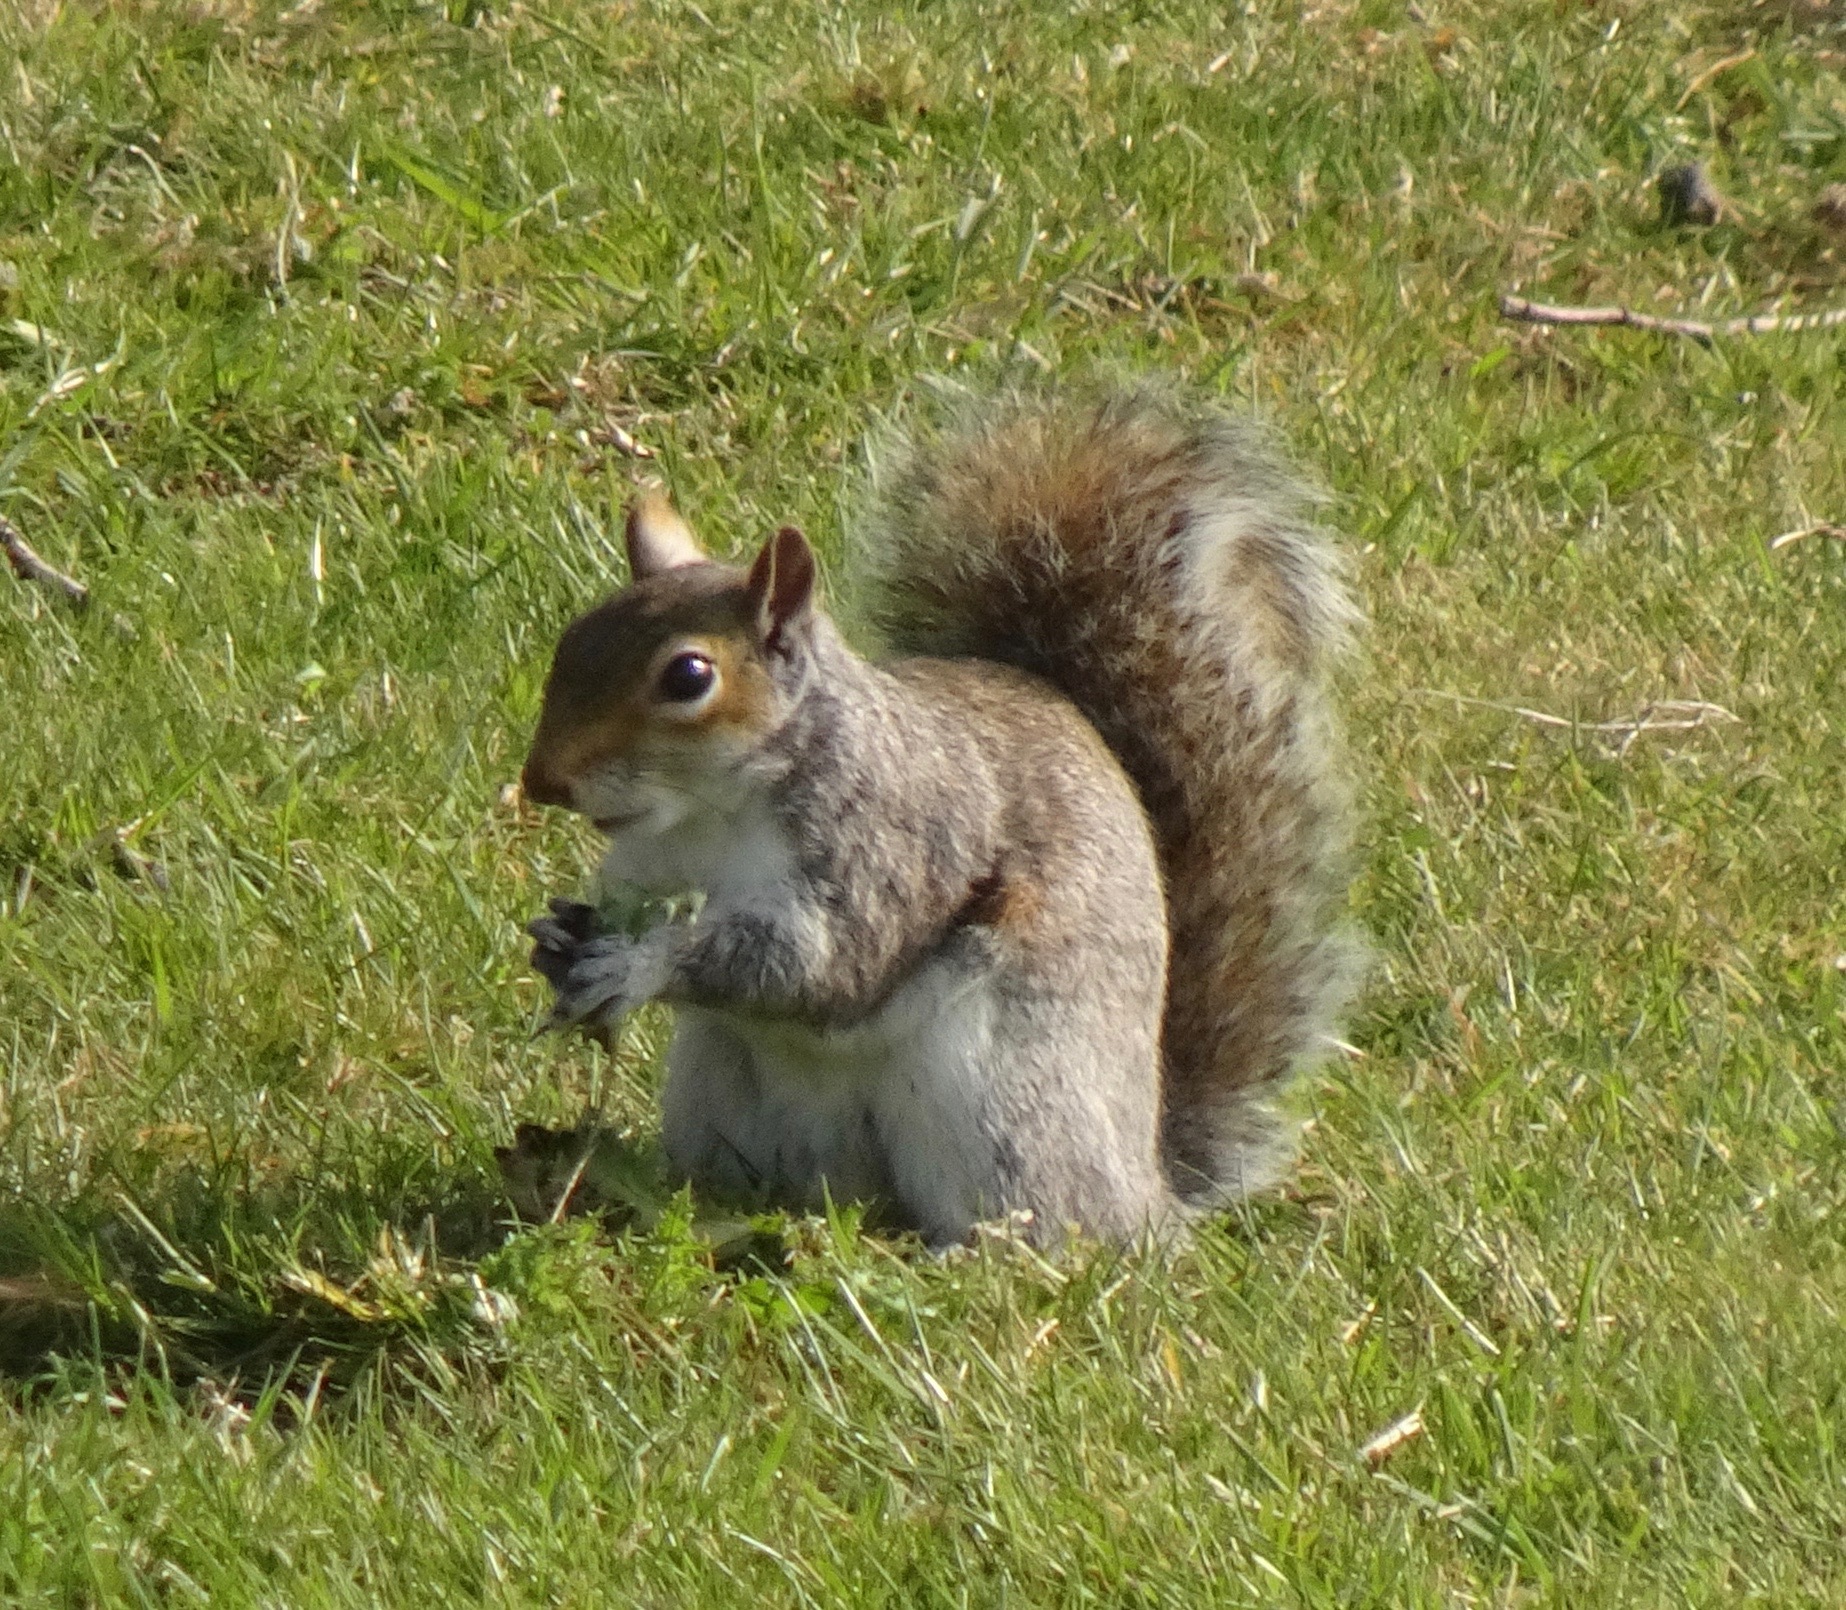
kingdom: Animalia
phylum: Chordata
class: Mammalia
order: Rodentia
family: Sciuridae
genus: Sciurus
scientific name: Sciurus carolinensis
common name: Eastern gray squirrel
